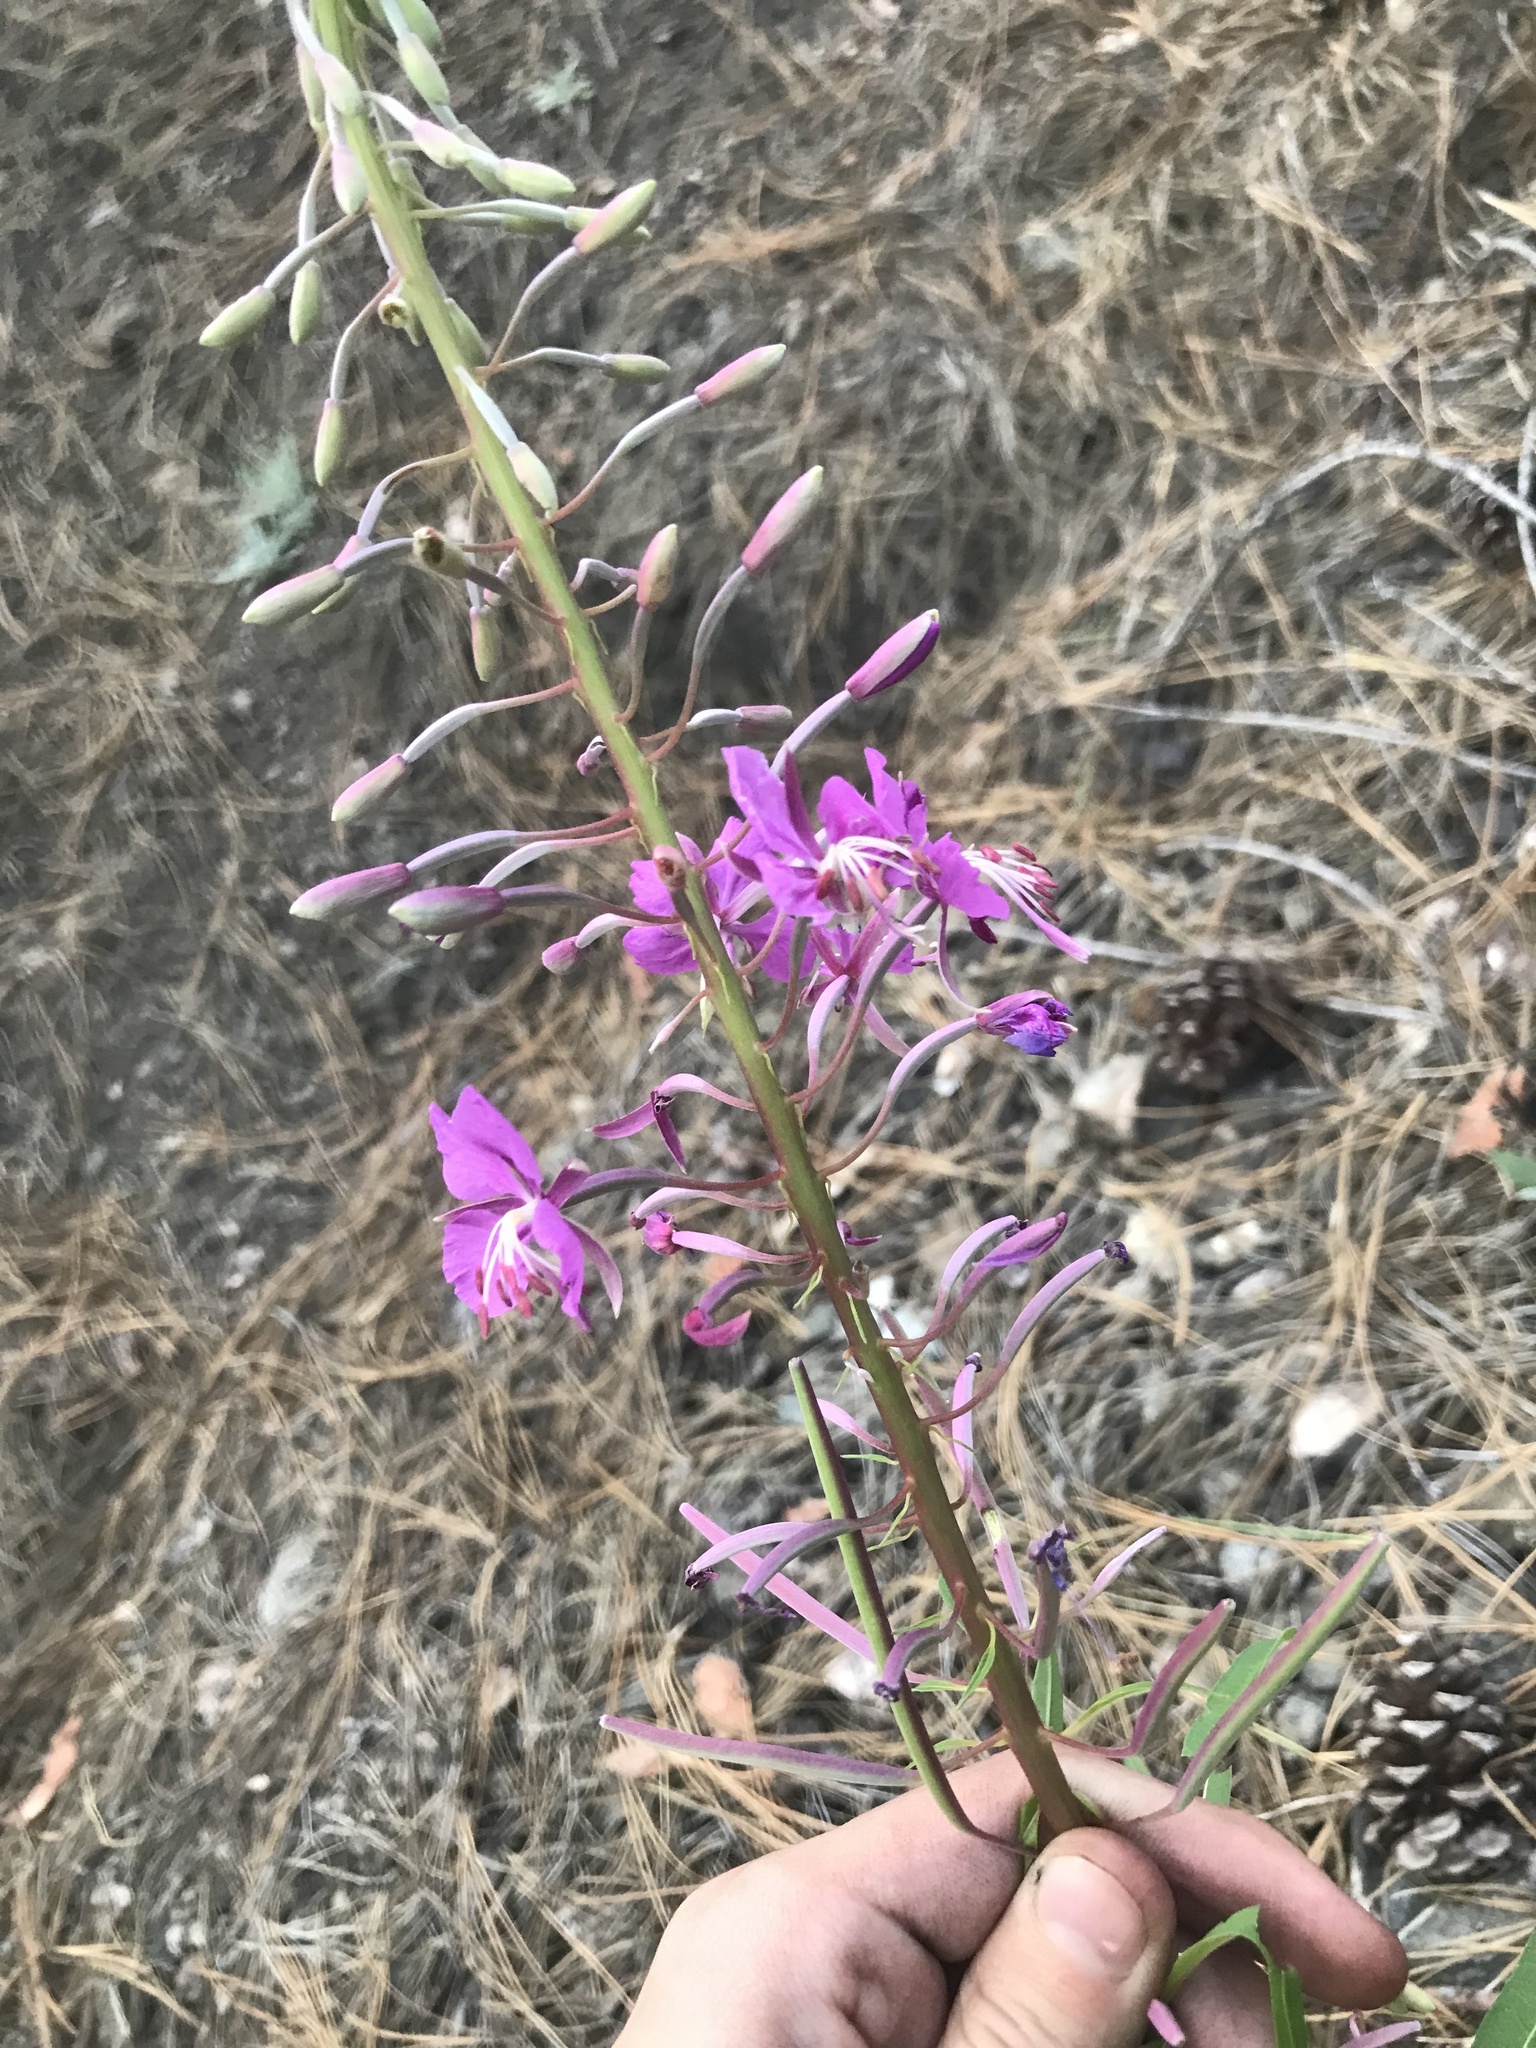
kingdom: Plantae
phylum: Tracheophyta
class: Magnoliopsida
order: Myrtales
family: Onagraceae
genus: Chamaenerion
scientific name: Chamaenerion angustifolium
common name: Fireweed
